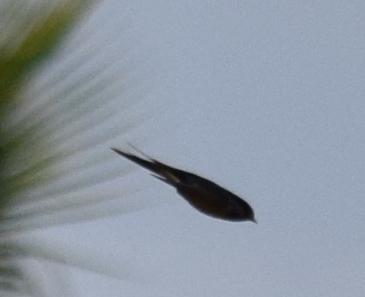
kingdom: Animalia
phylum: Chordata
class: Aves
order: Passeriformes
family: Hirundinidae
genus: Hirundo
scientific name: Hirundo rustica
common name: Barn swallow
